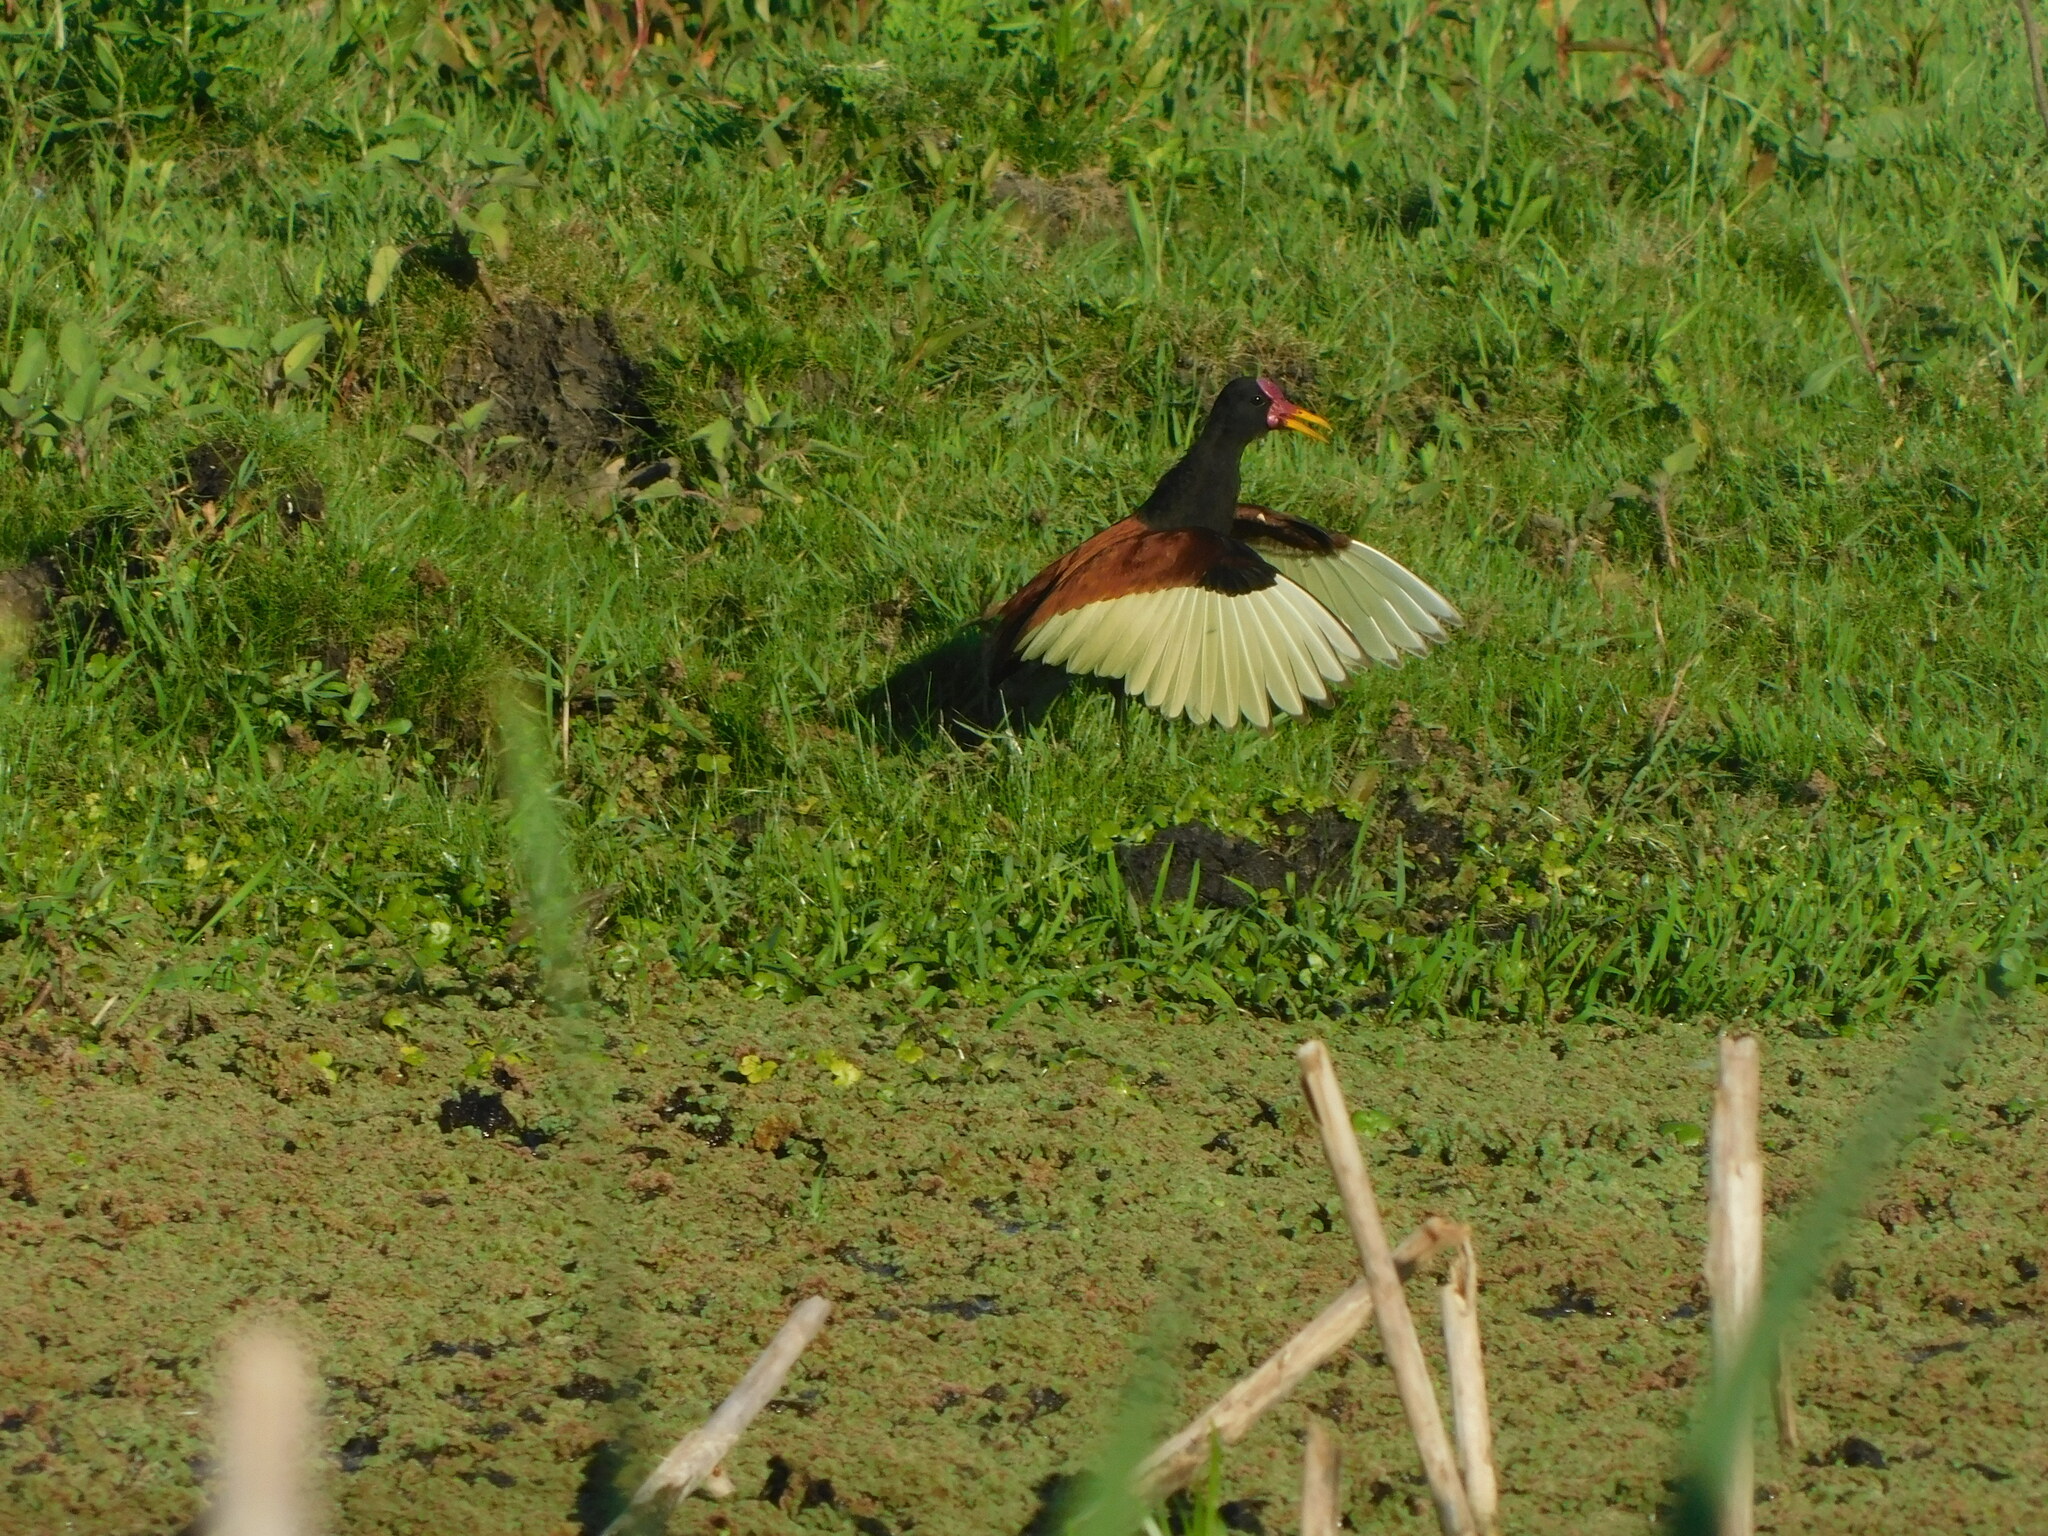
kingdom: Animalia
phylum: Chordata
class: Aves
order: Charadriiformes
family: Jacanidae
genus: Jacana
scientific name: Jacana jacana
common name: Wattled jacana
